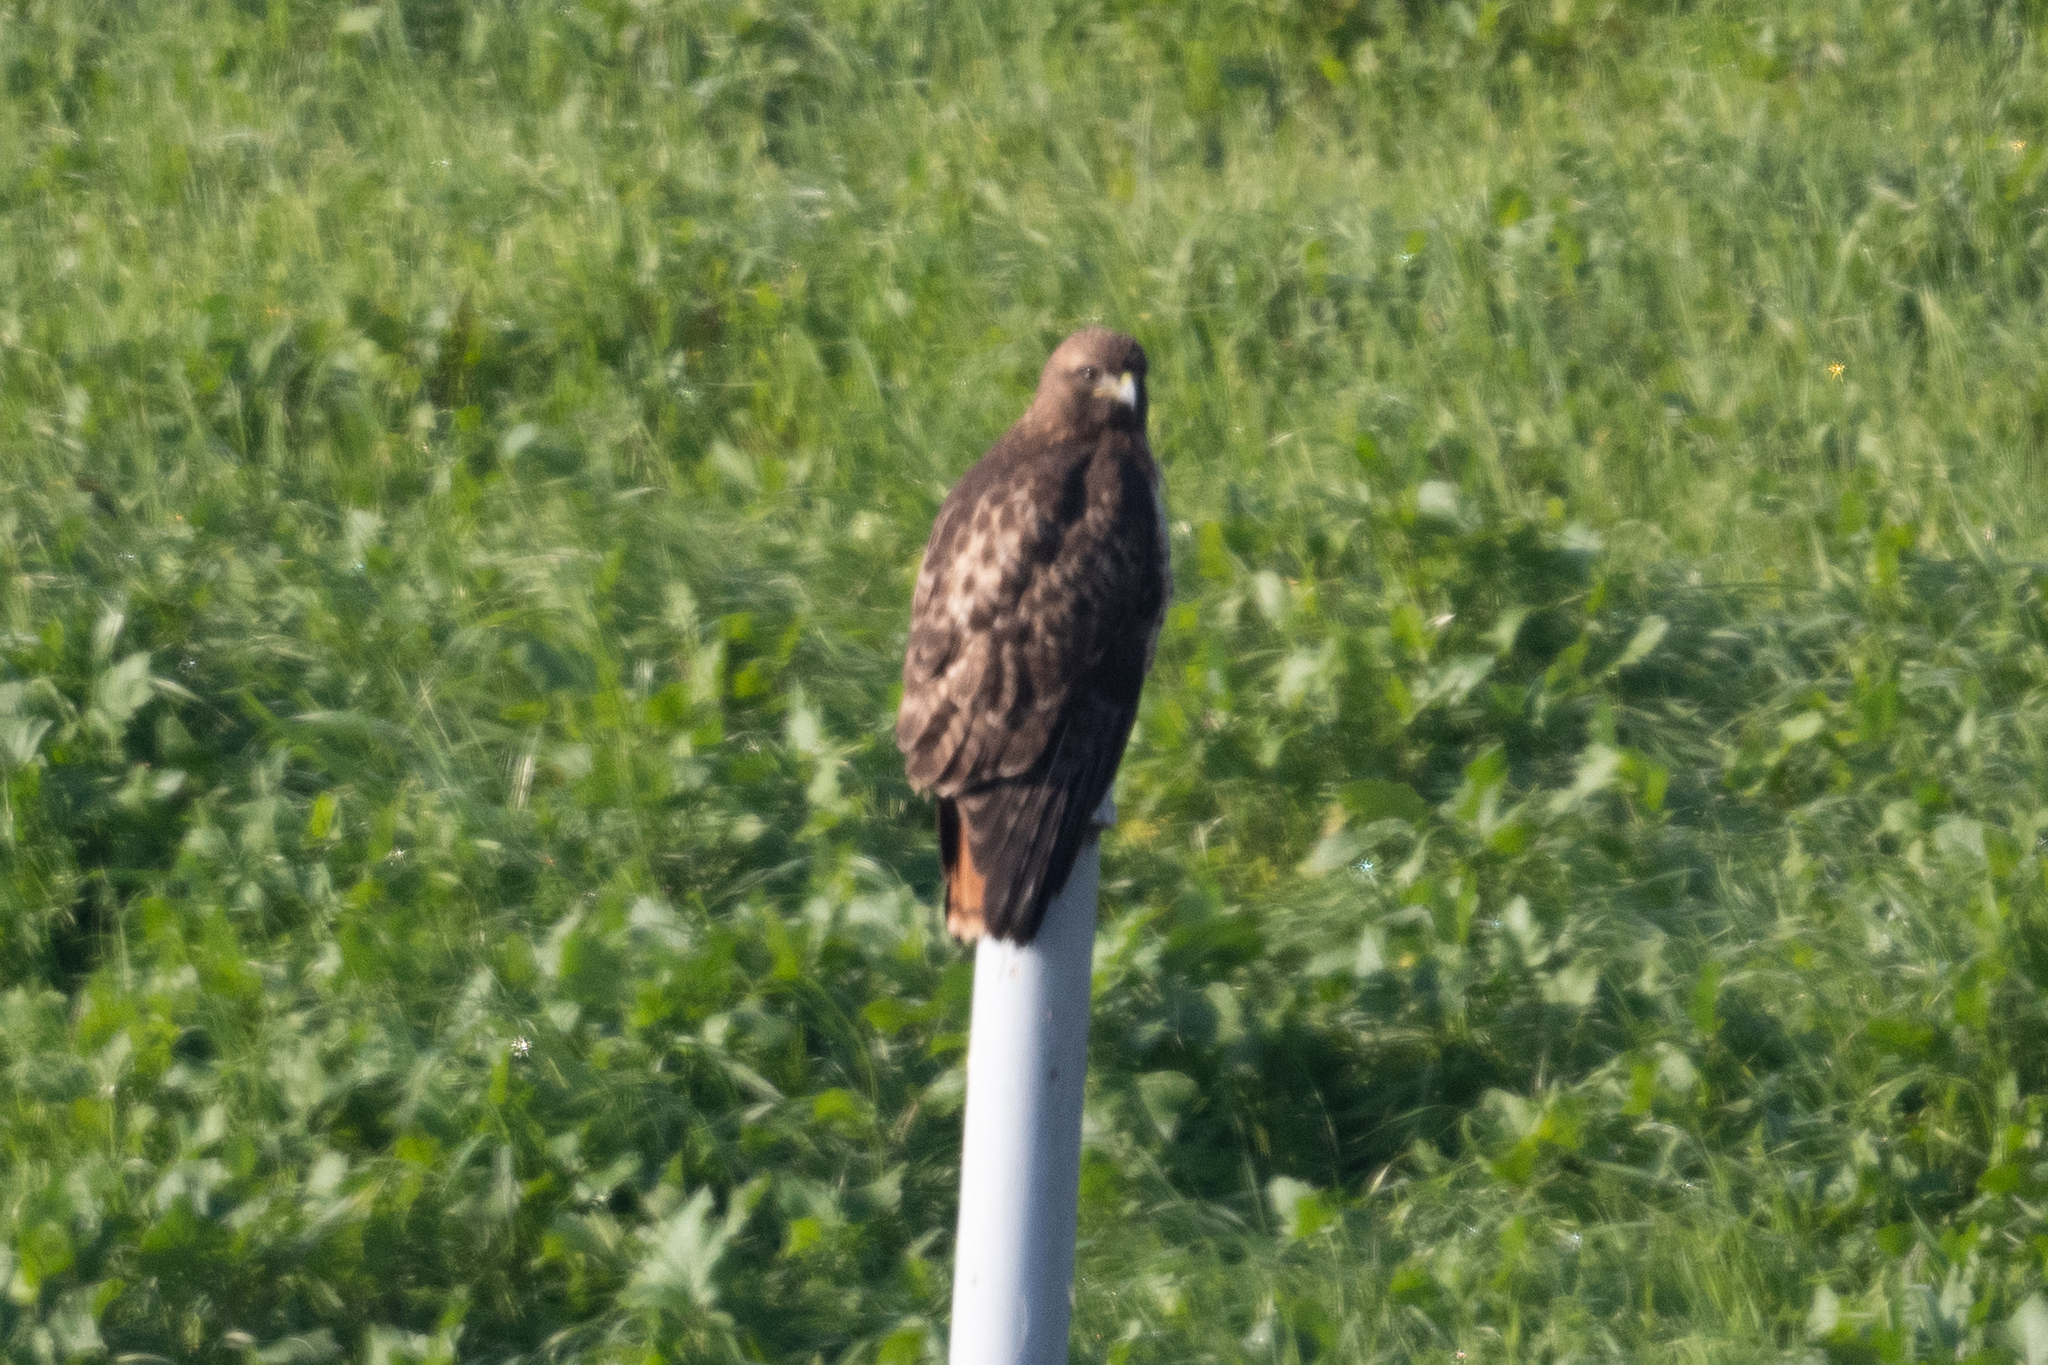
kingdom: Animalia
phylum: Chordata
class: Aves
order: Accipitriformes
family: Accipitridae
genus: Buteo
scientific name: Buteo jamaicensis
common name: Red-tailed hawk
